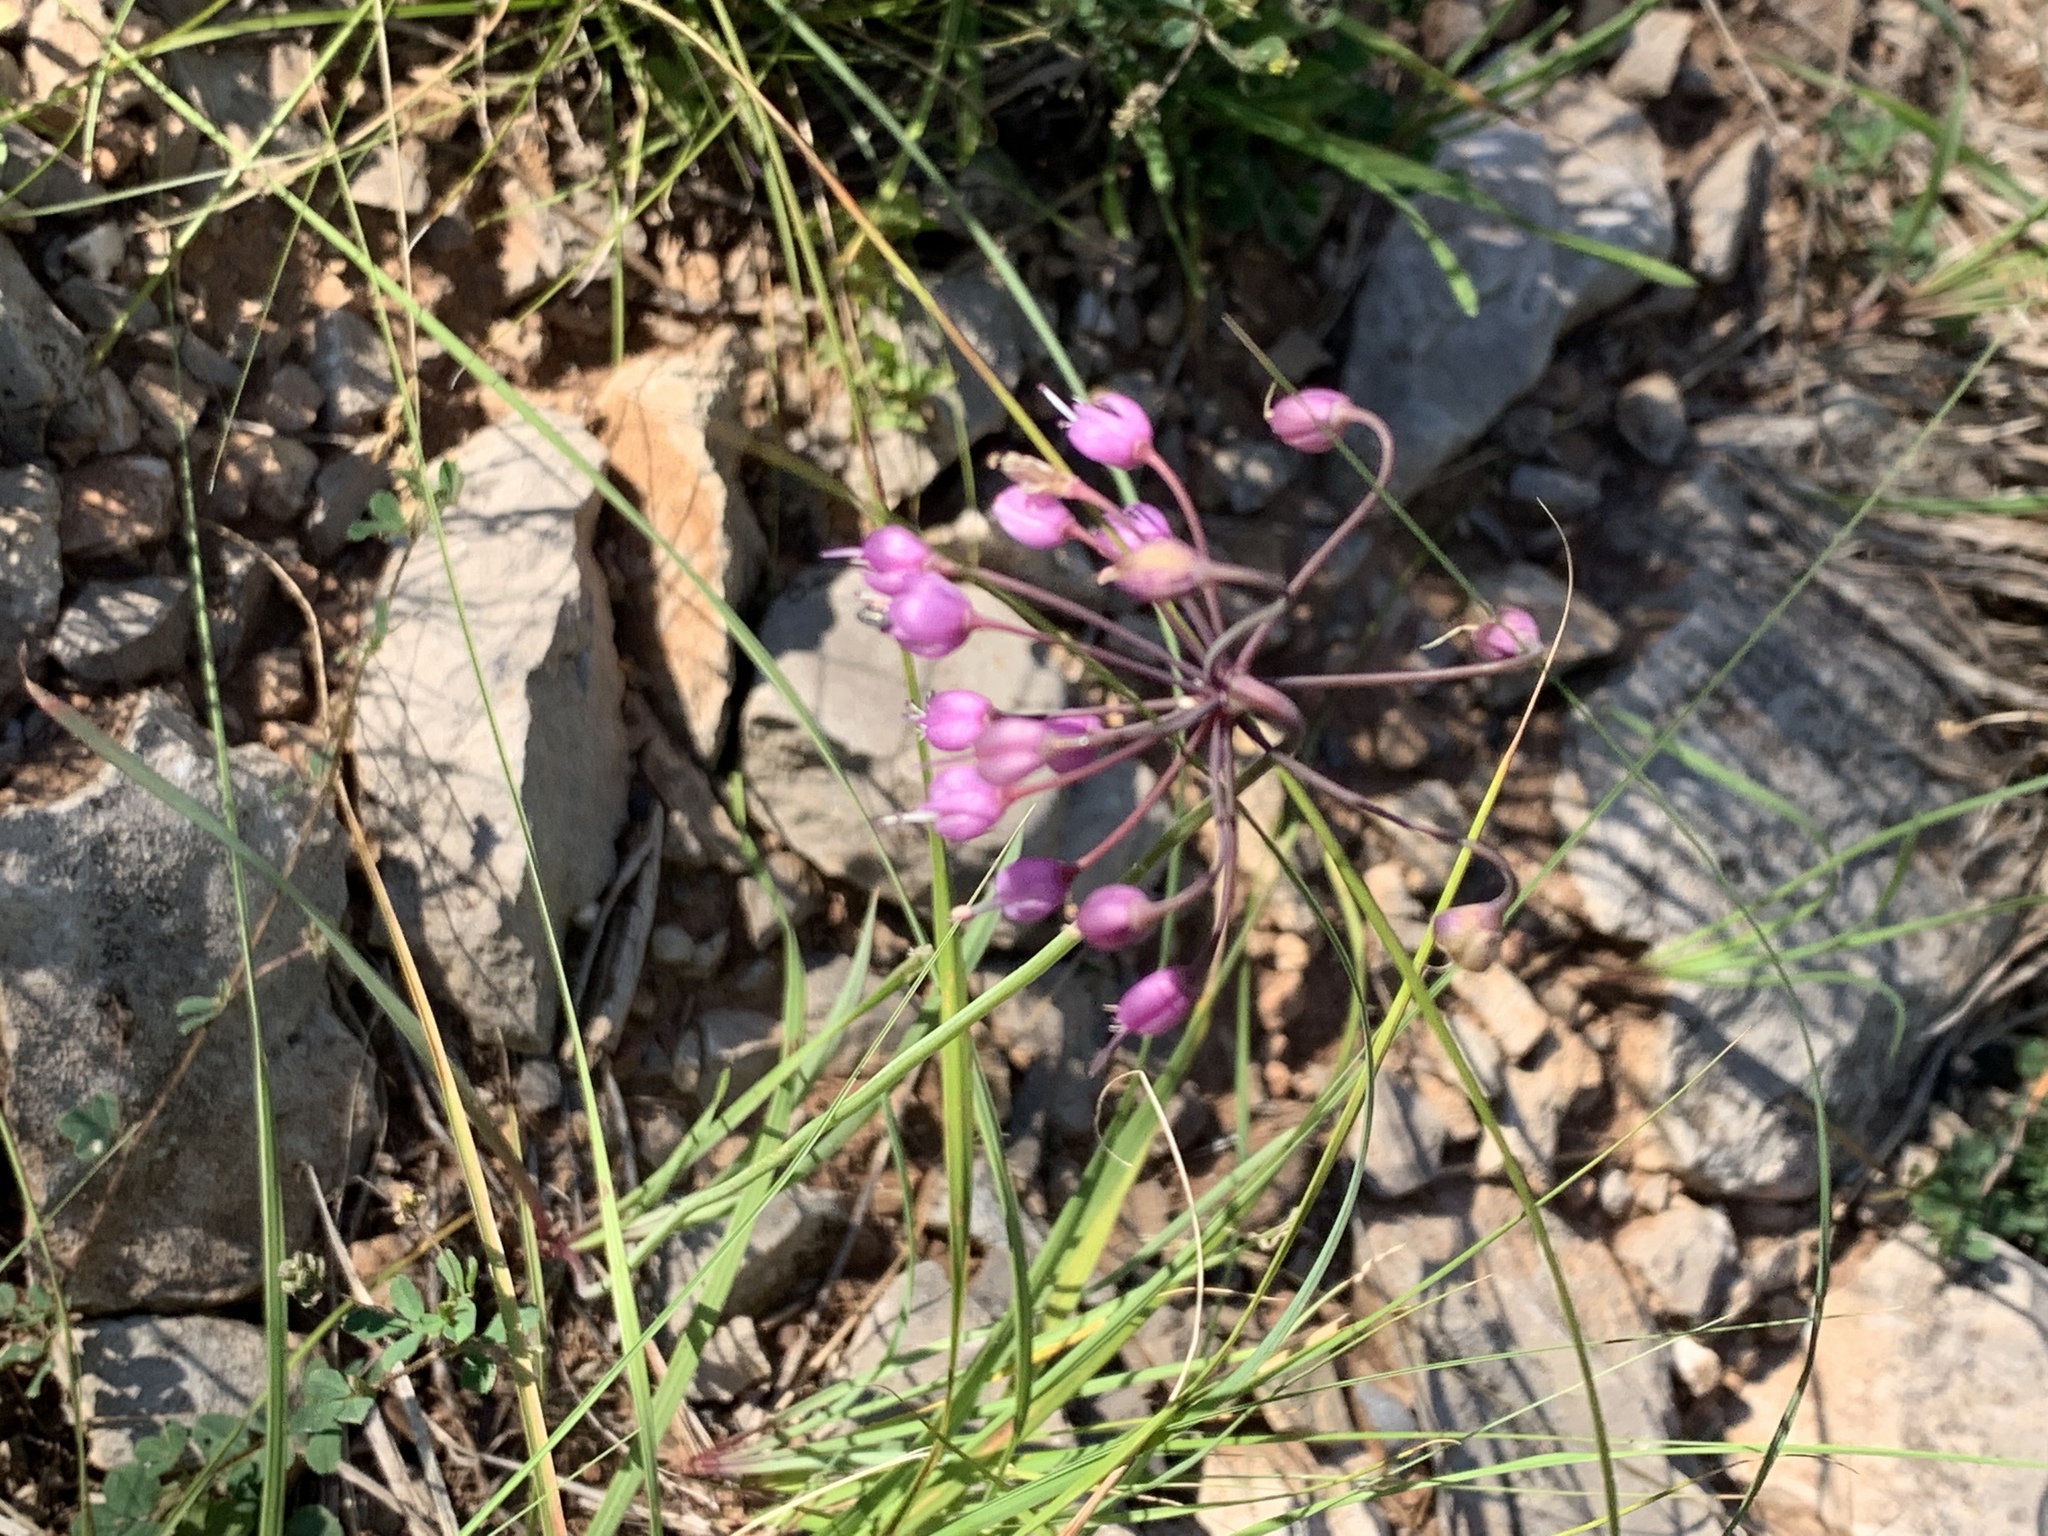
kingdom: Plantae
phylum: Tracheophyta
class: Liliopsida
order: Asparagales
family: Amaryllidaceae
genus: Allium
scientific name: Allium cernuum
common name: Nodding onion
